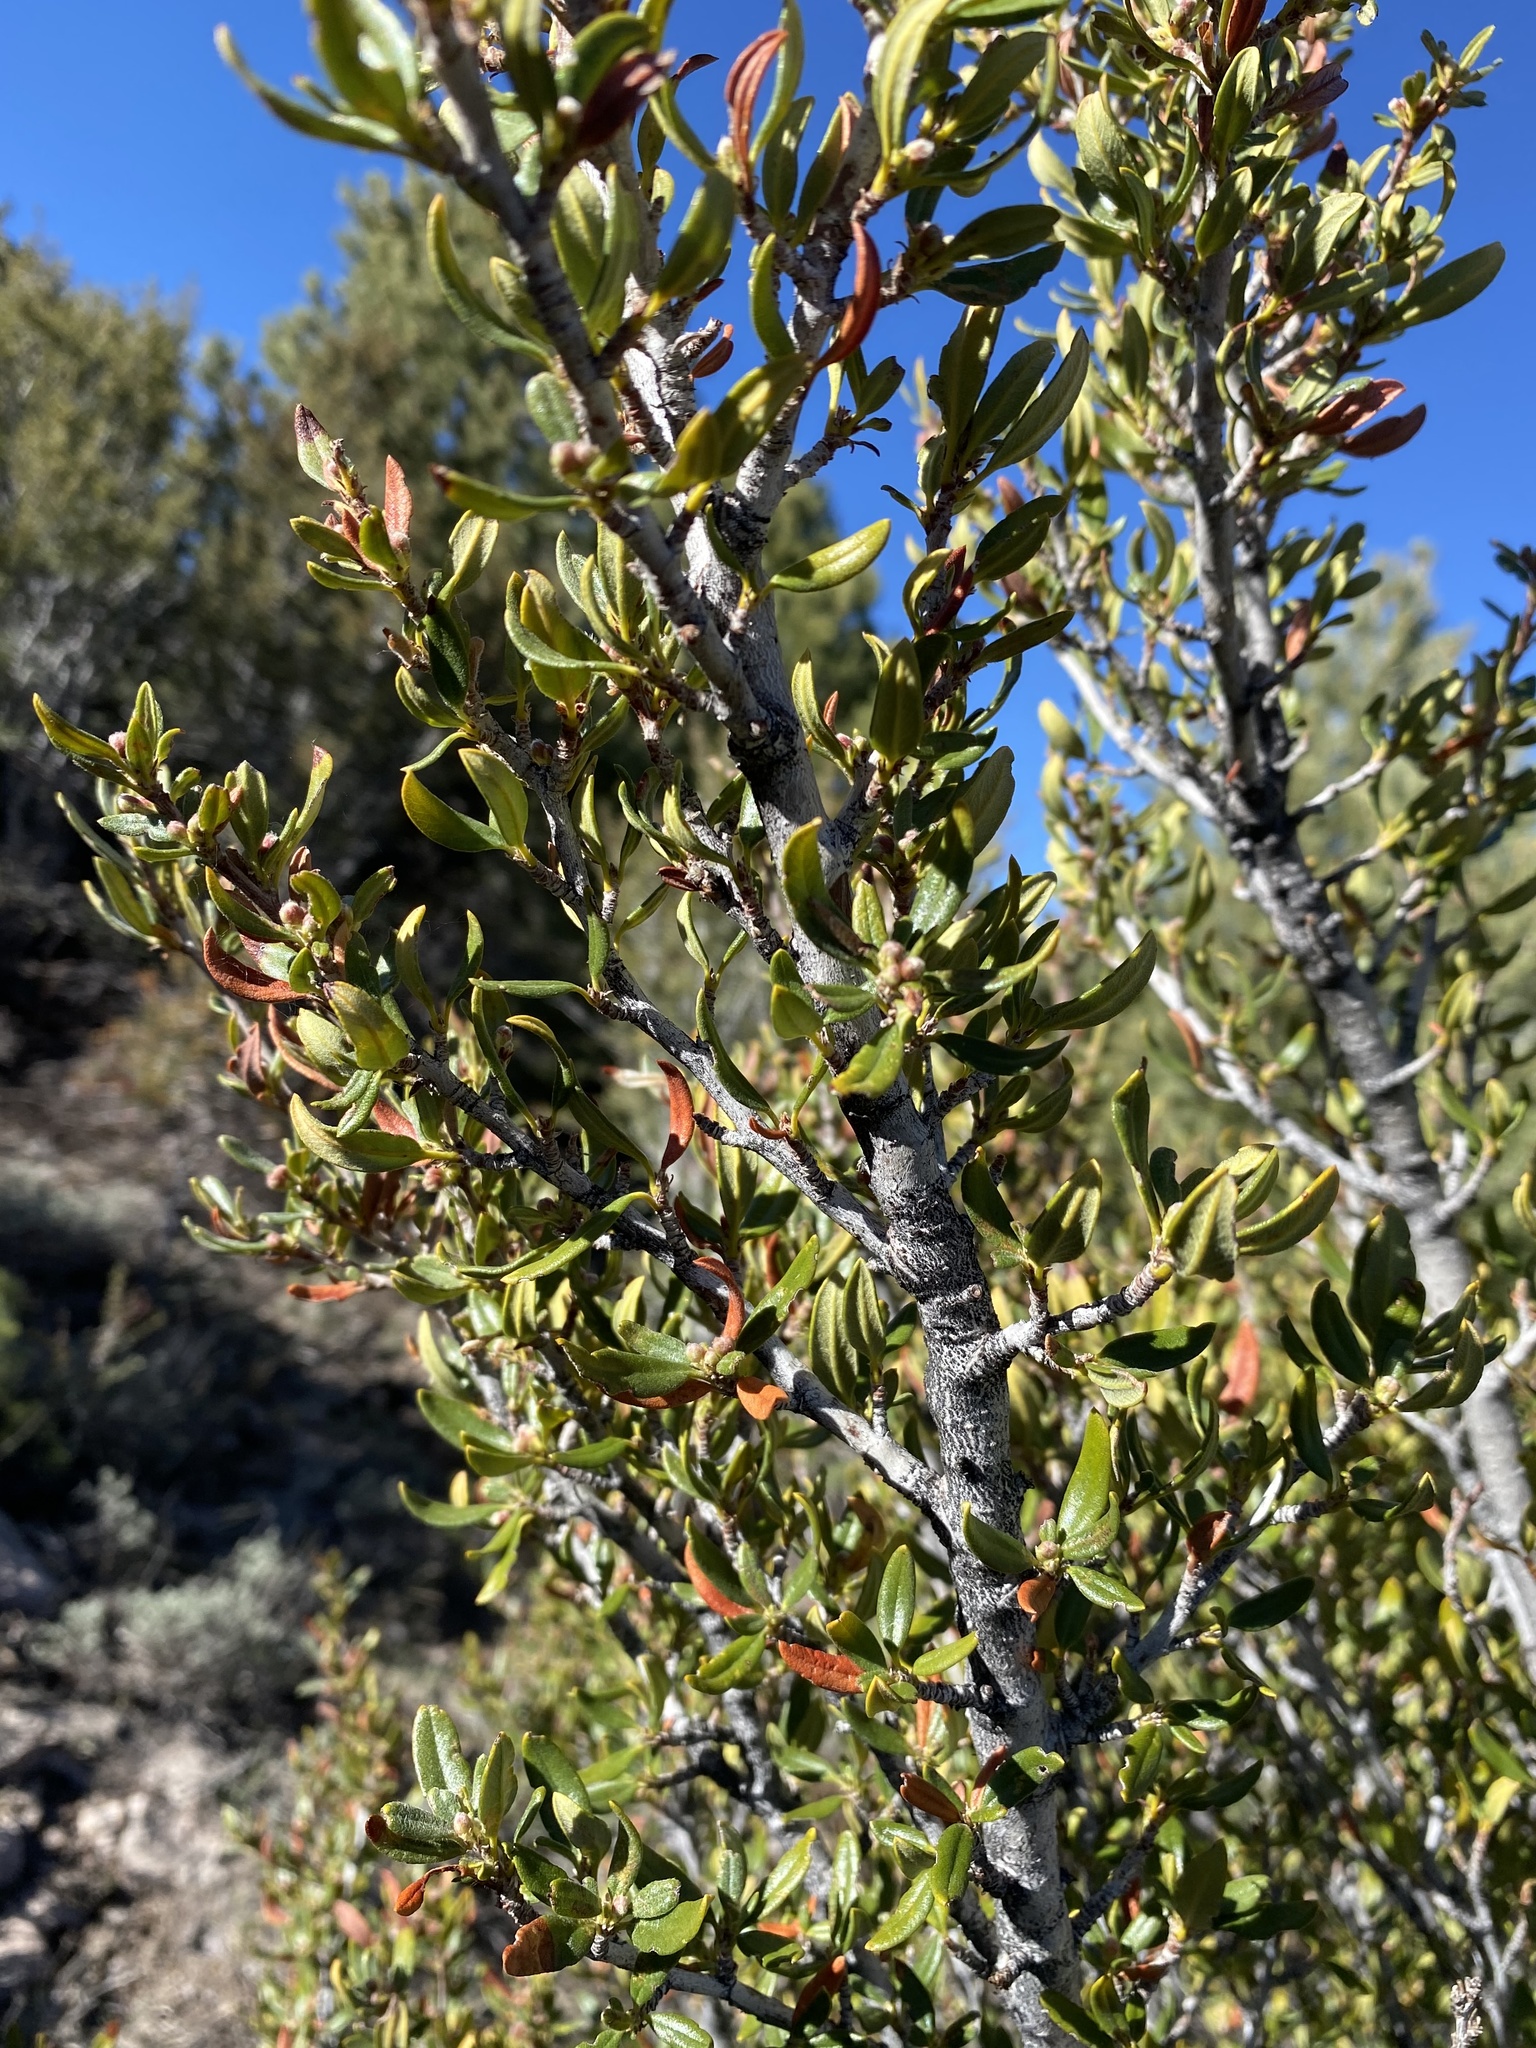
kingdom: Plantae
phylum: Tracheophyta
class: Magnoliopsida
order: Rosales
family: Rosaceae
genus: Cercocarpus
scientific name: Cercocarpus ledifolius
